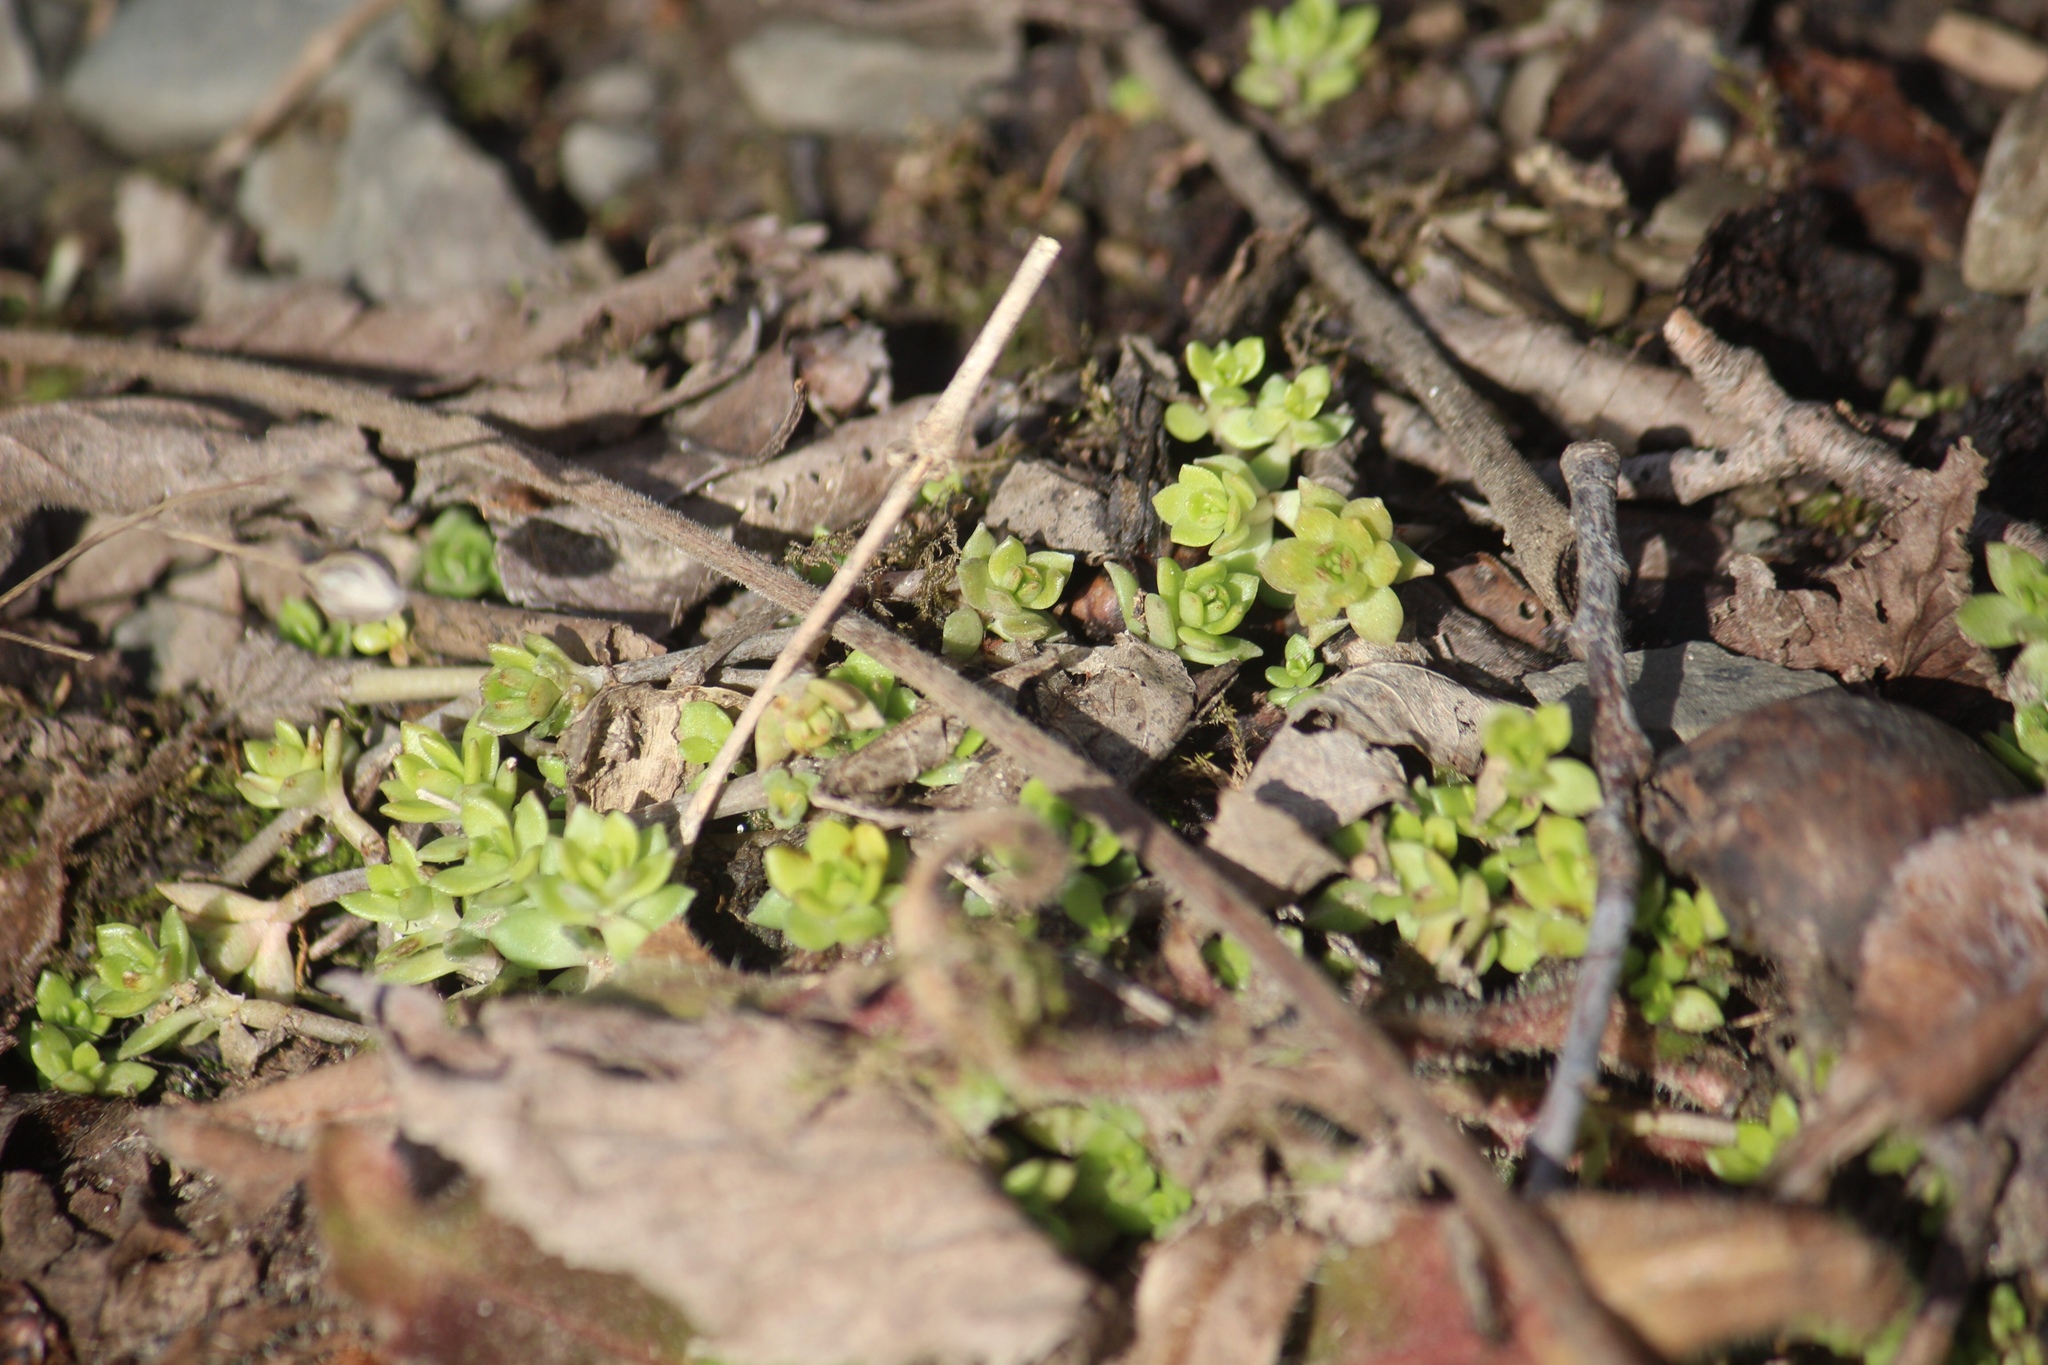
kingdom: Plantae
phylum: Tracheophyta
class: Magnoliopsida
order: Saxifragales
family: Crassulaceae
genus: Sedum
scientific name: Sedum sarmentosum
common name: Stringy stonecrop
